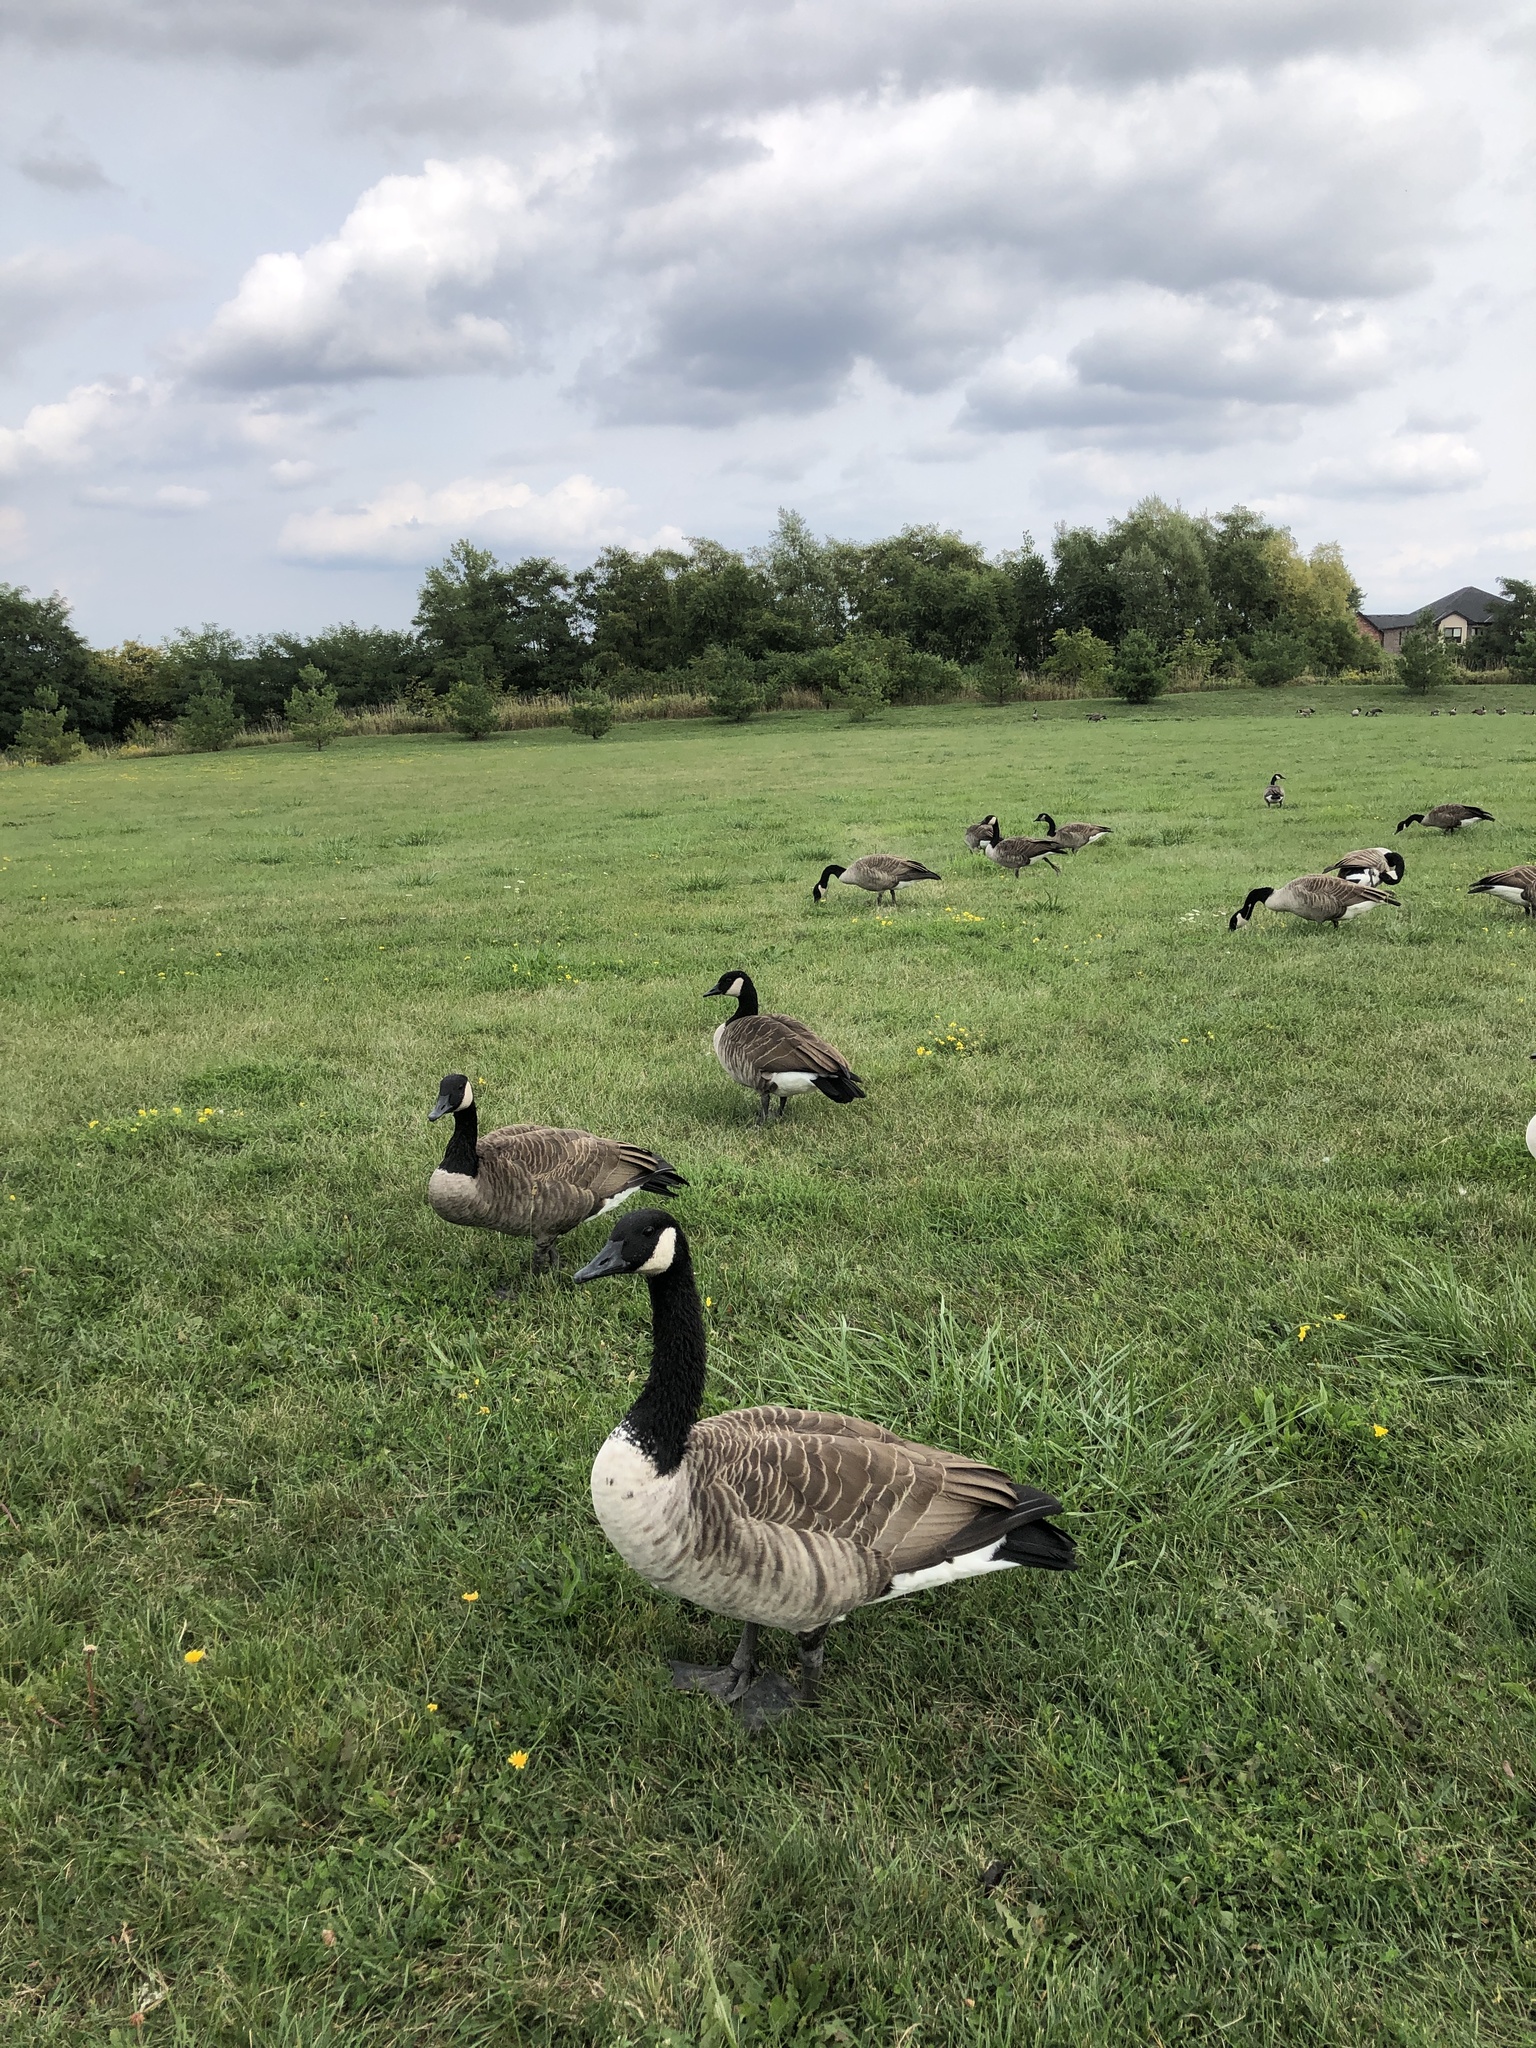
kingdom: Animalia
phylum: Chordata
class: Aves
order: Anseriformes
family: Anatidae
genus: Branta
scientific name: Branta canadensis
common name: Canada goose
